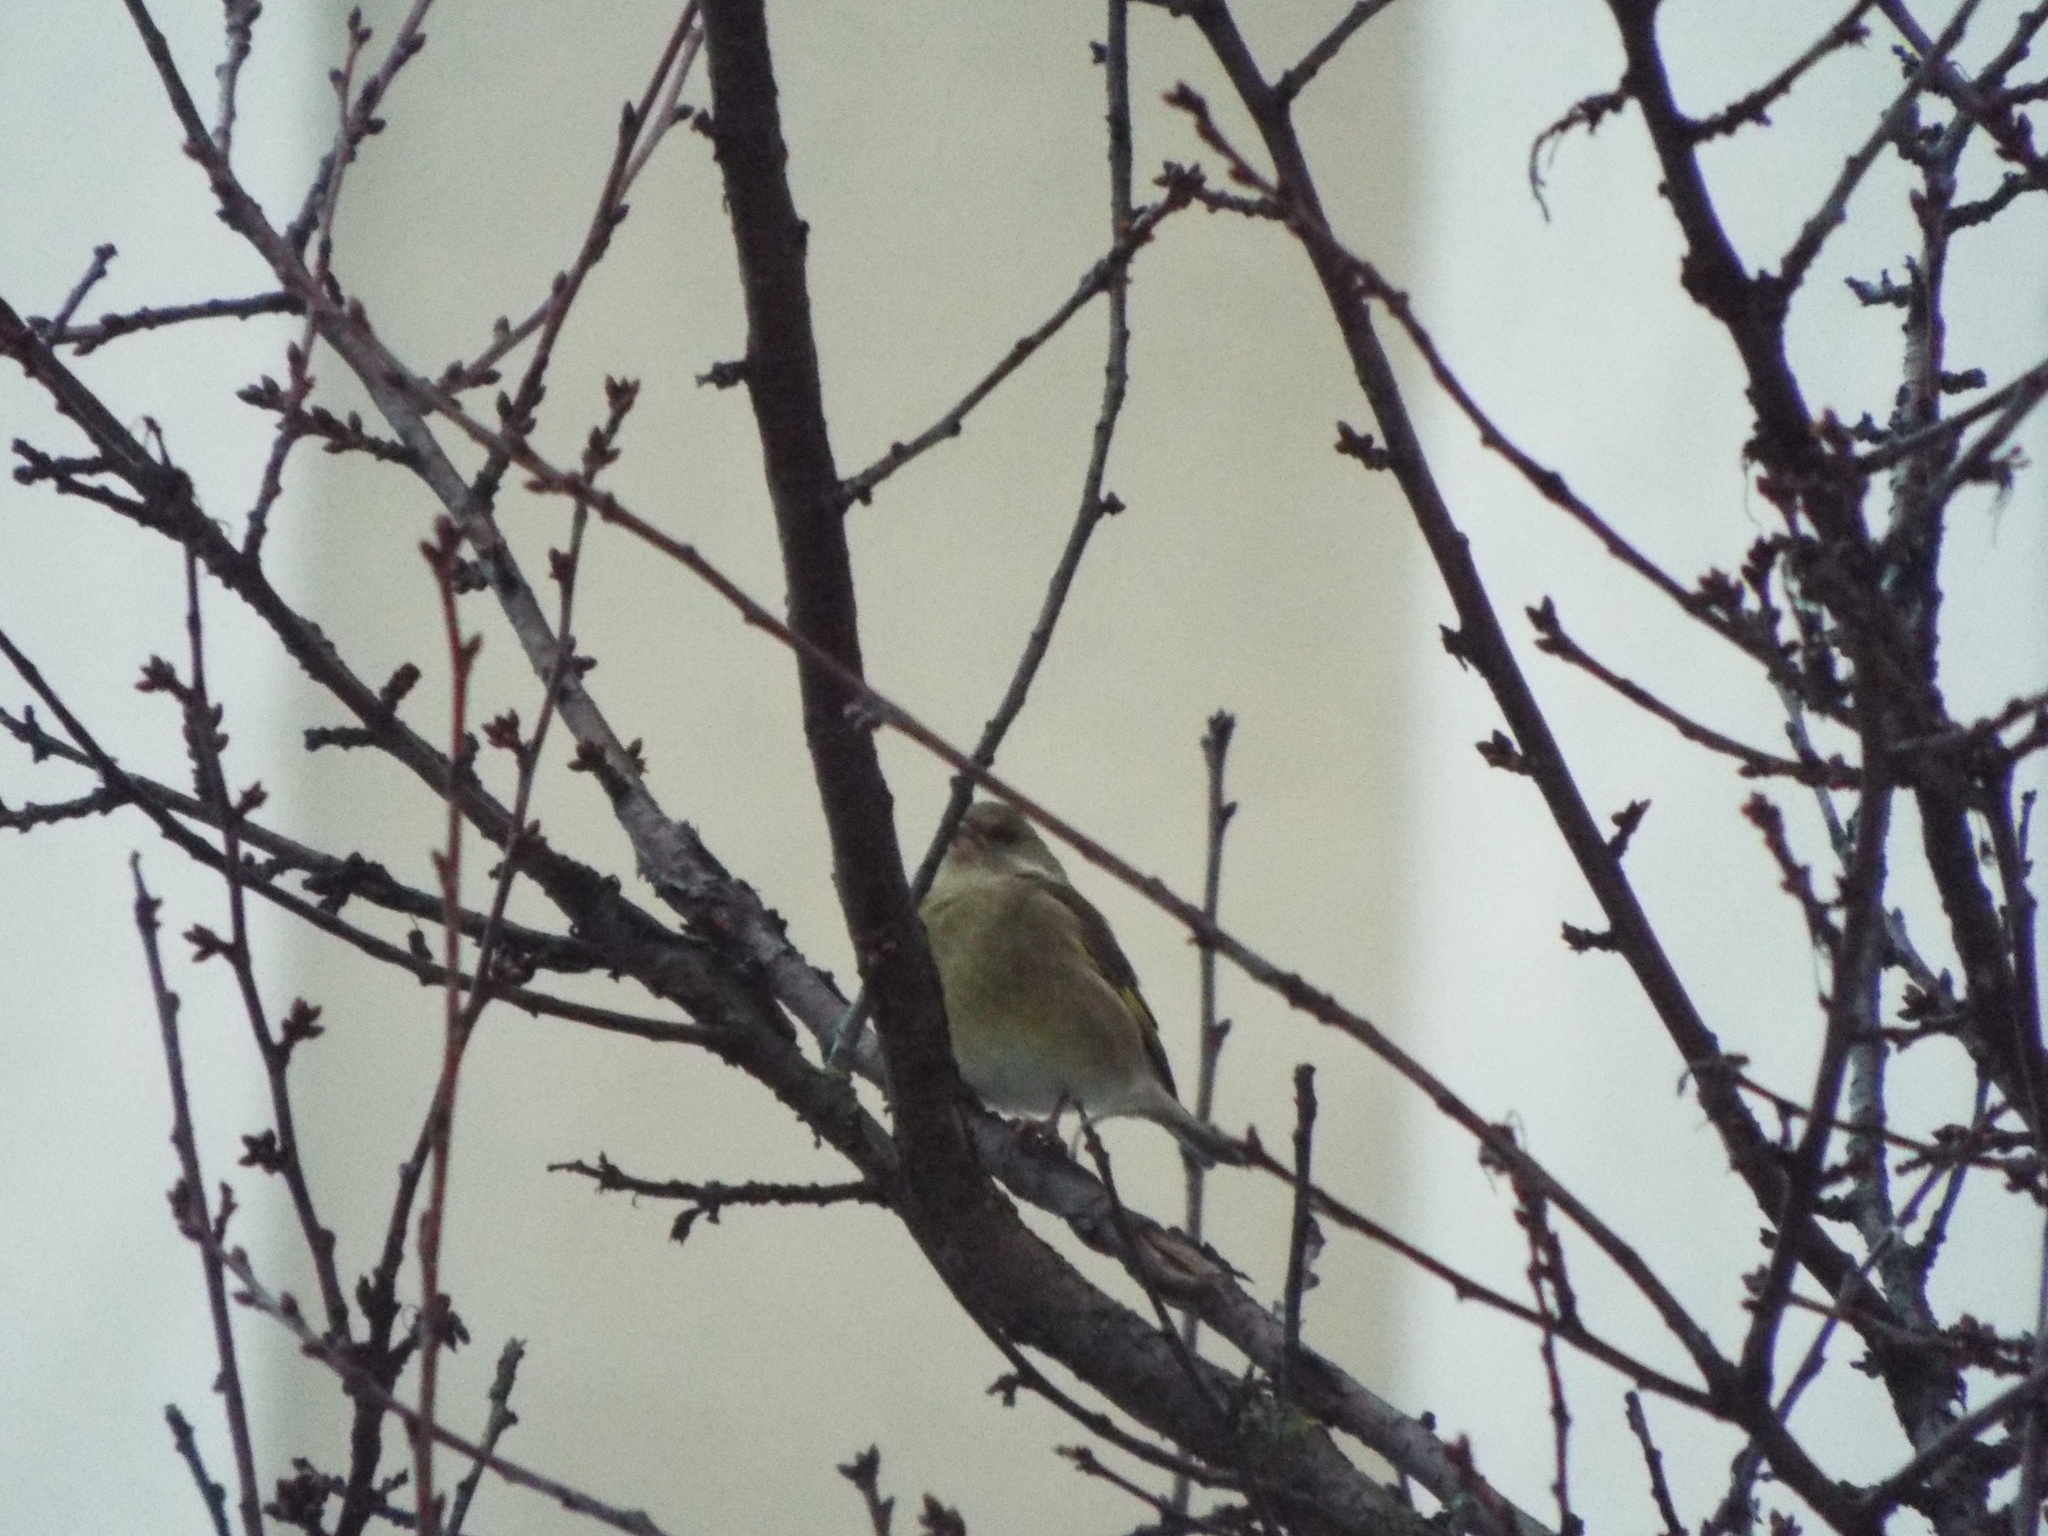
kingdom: Plantae
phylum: Tracheophyta
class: Liliopsida
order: Poales
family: Poaceae
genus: Chloris
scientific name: Chloris chloris
